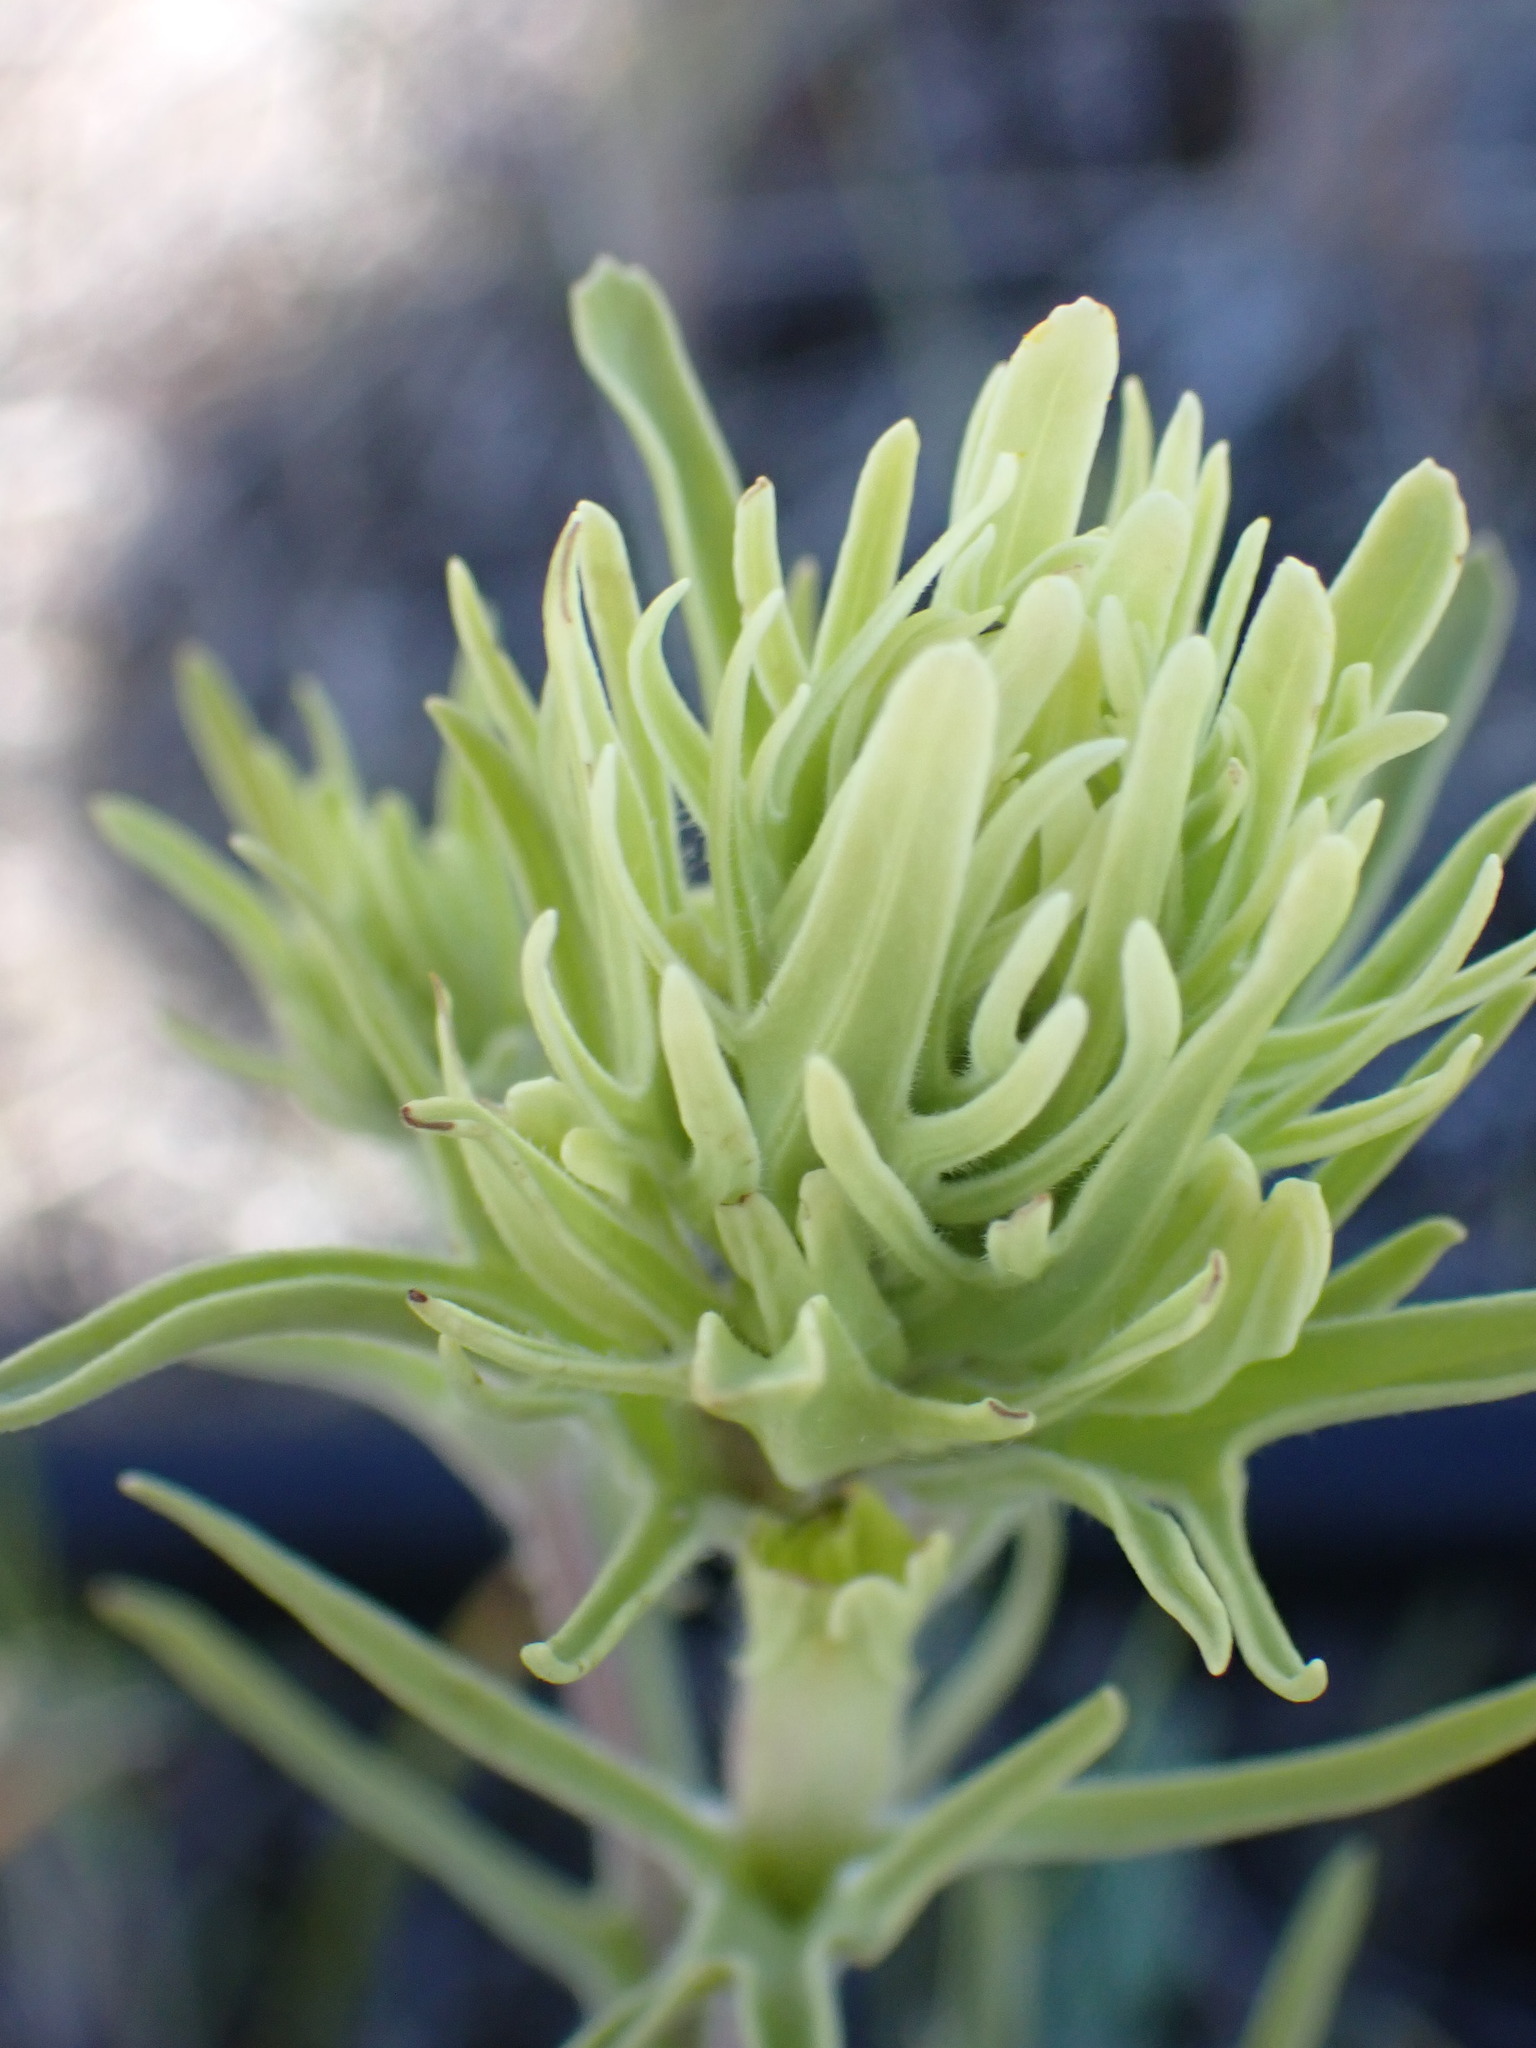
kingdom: Plantae
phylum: Tracheophyta
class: Magnoliopsida
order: Lamiales
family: Orobanchaceae
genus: Castilleja
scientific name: Castilleja thompsonii
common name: Thompson's paintbrush
